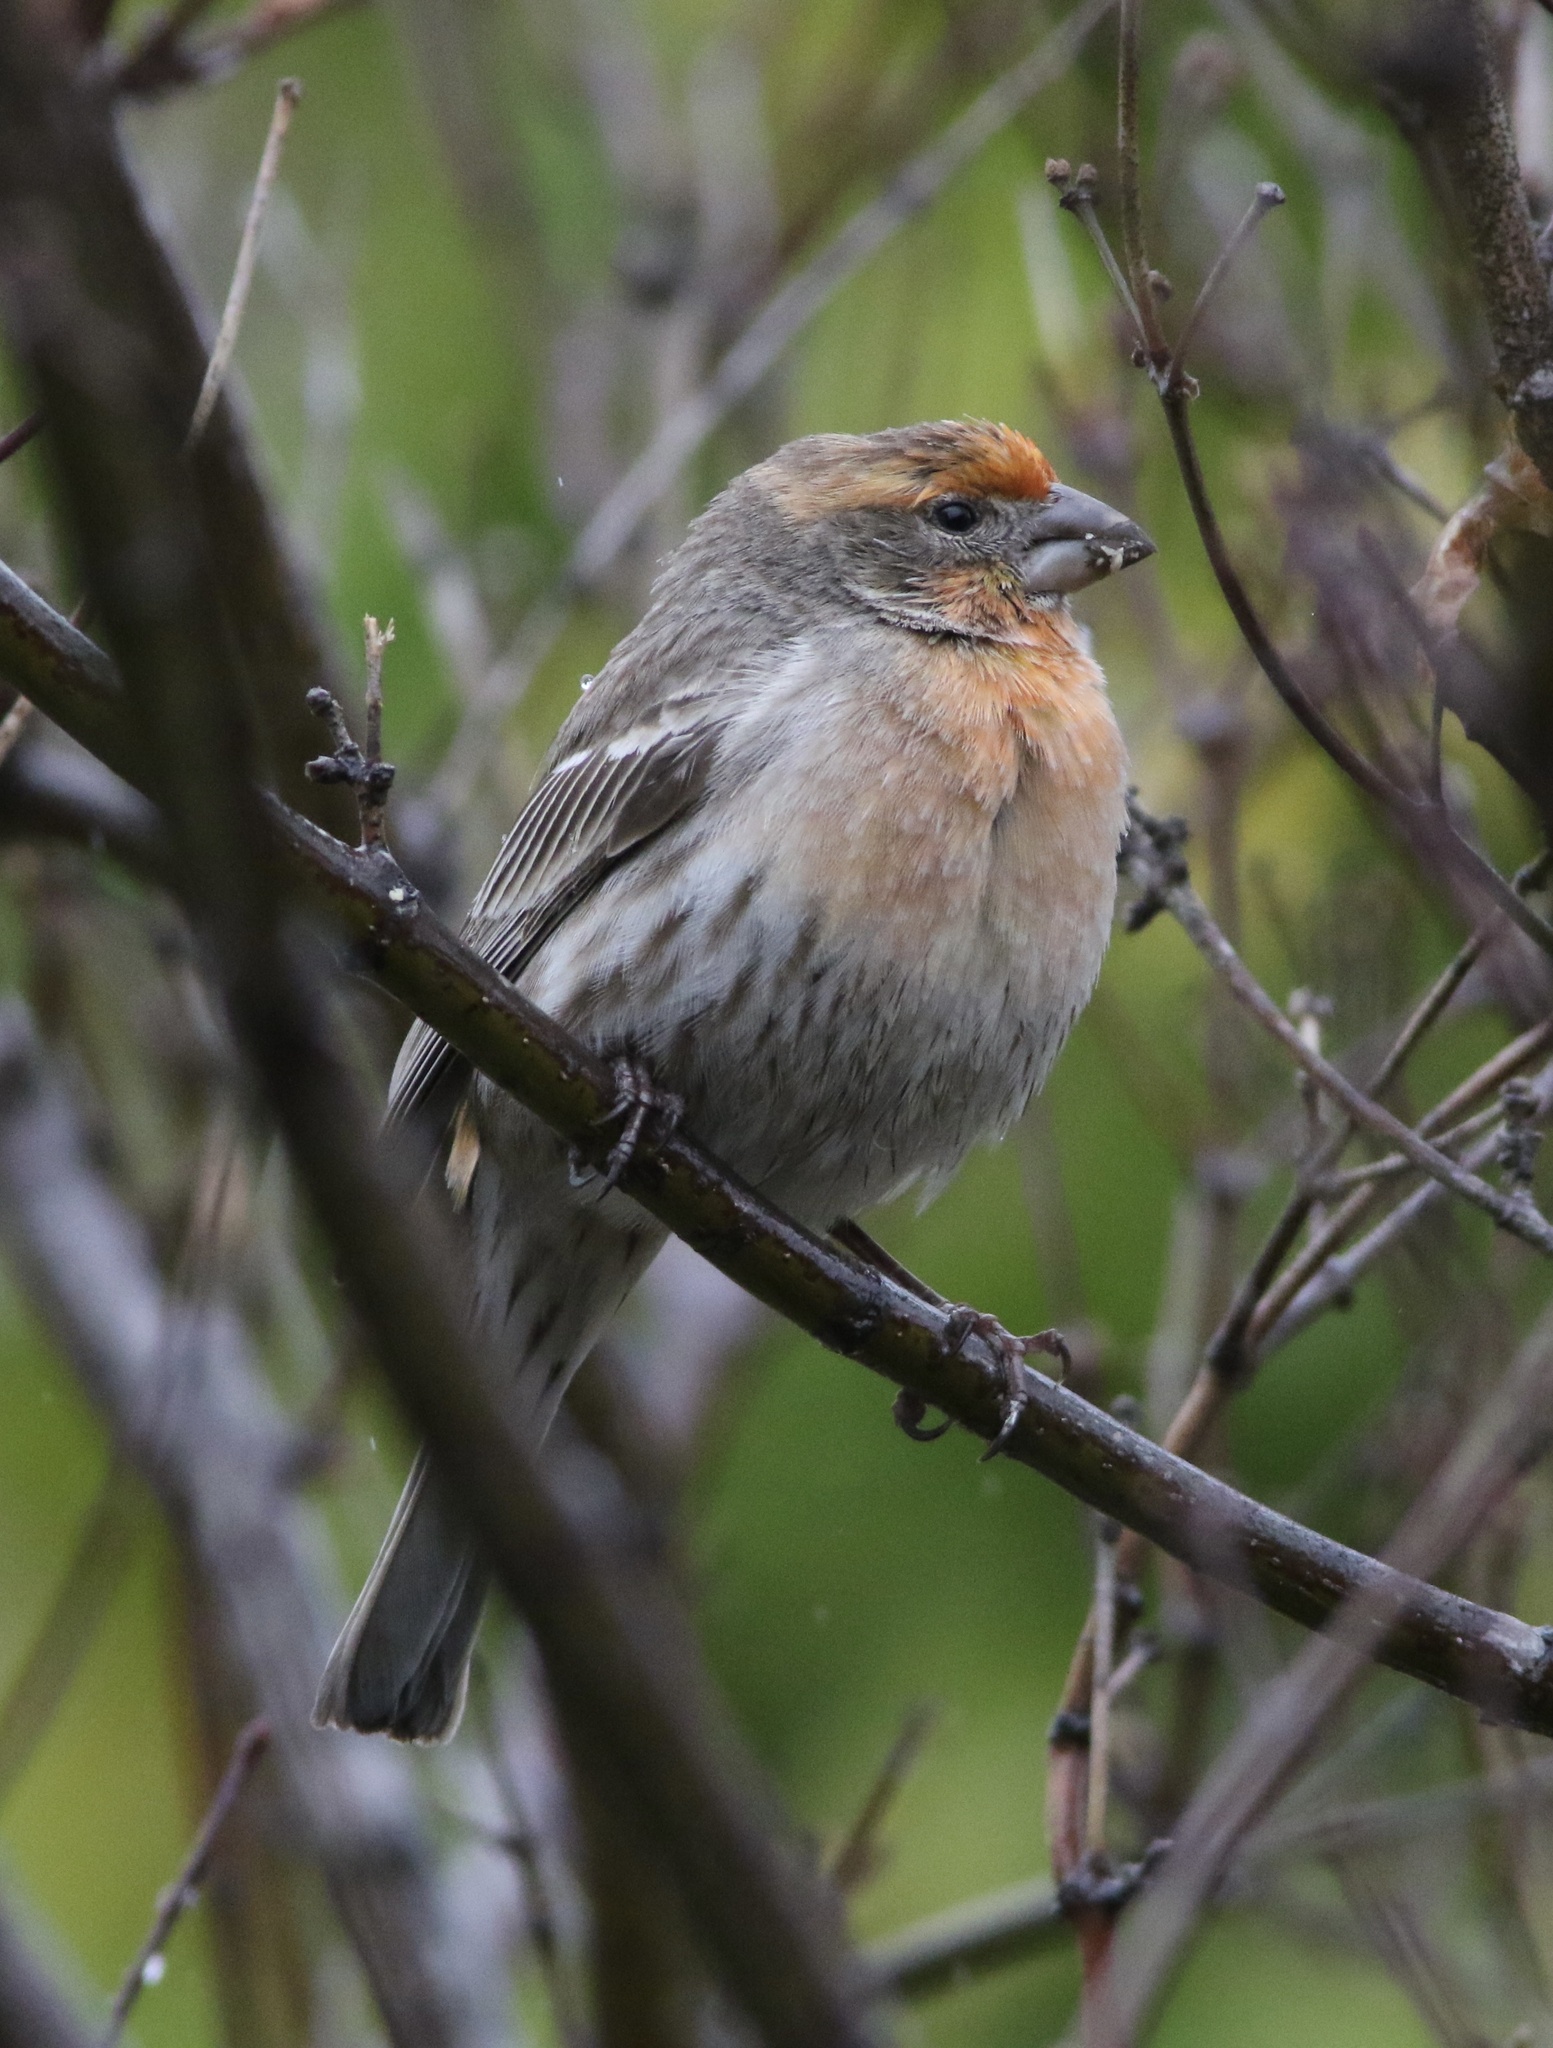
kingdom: Animalia
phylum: Chordata
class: Aves
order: Passeriformes
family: Fringillidae
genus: Haemorhous
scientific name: Haemorhous mexicanus
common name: House finch
